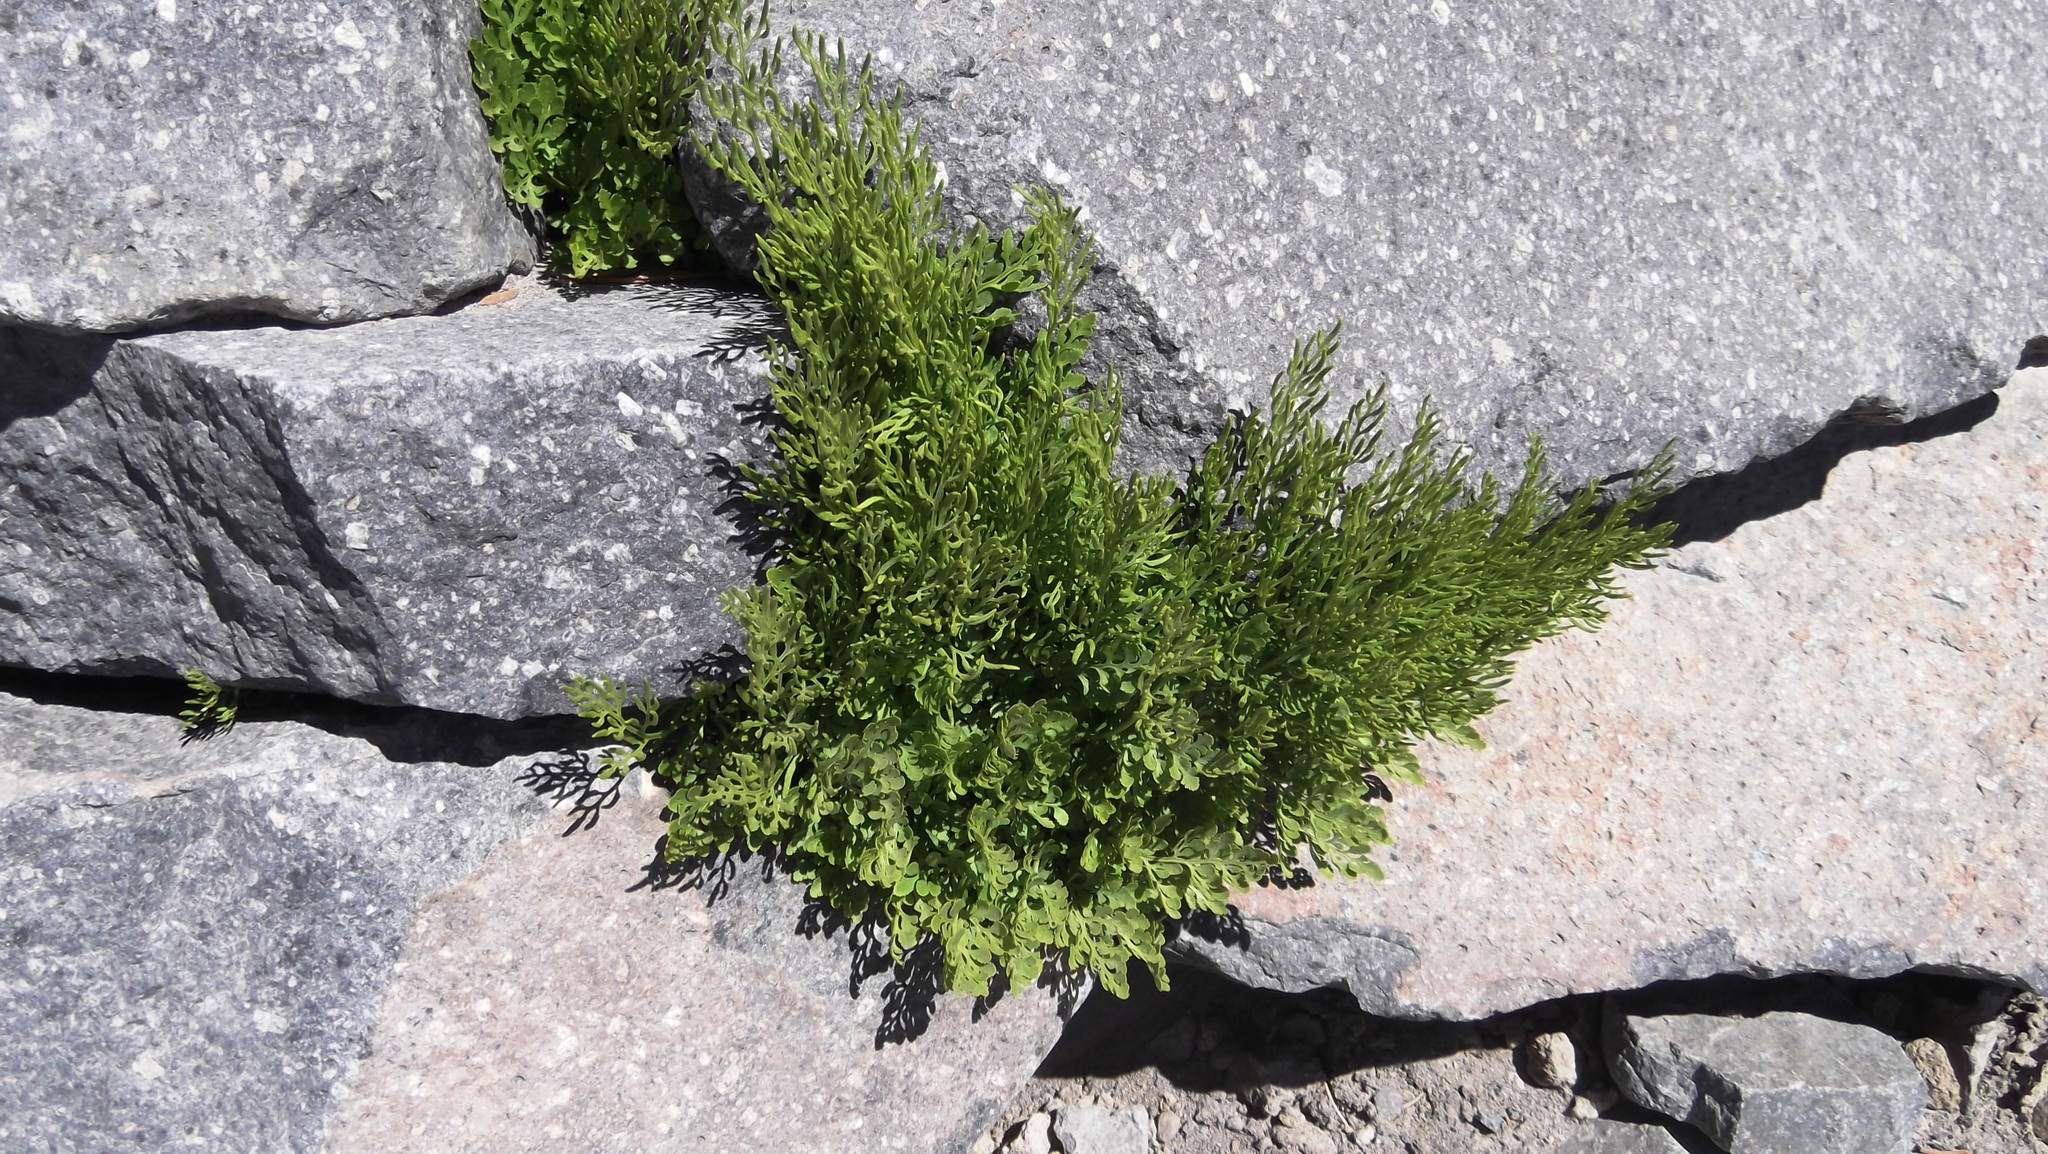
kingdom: Plantae
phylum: Tracheophyta
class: Polypodiopsida
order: Polypodiales
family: Pteridaceae
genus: Cryptogramma
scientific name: Cryptogramma cascadensis
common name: Cascade parsley fern
